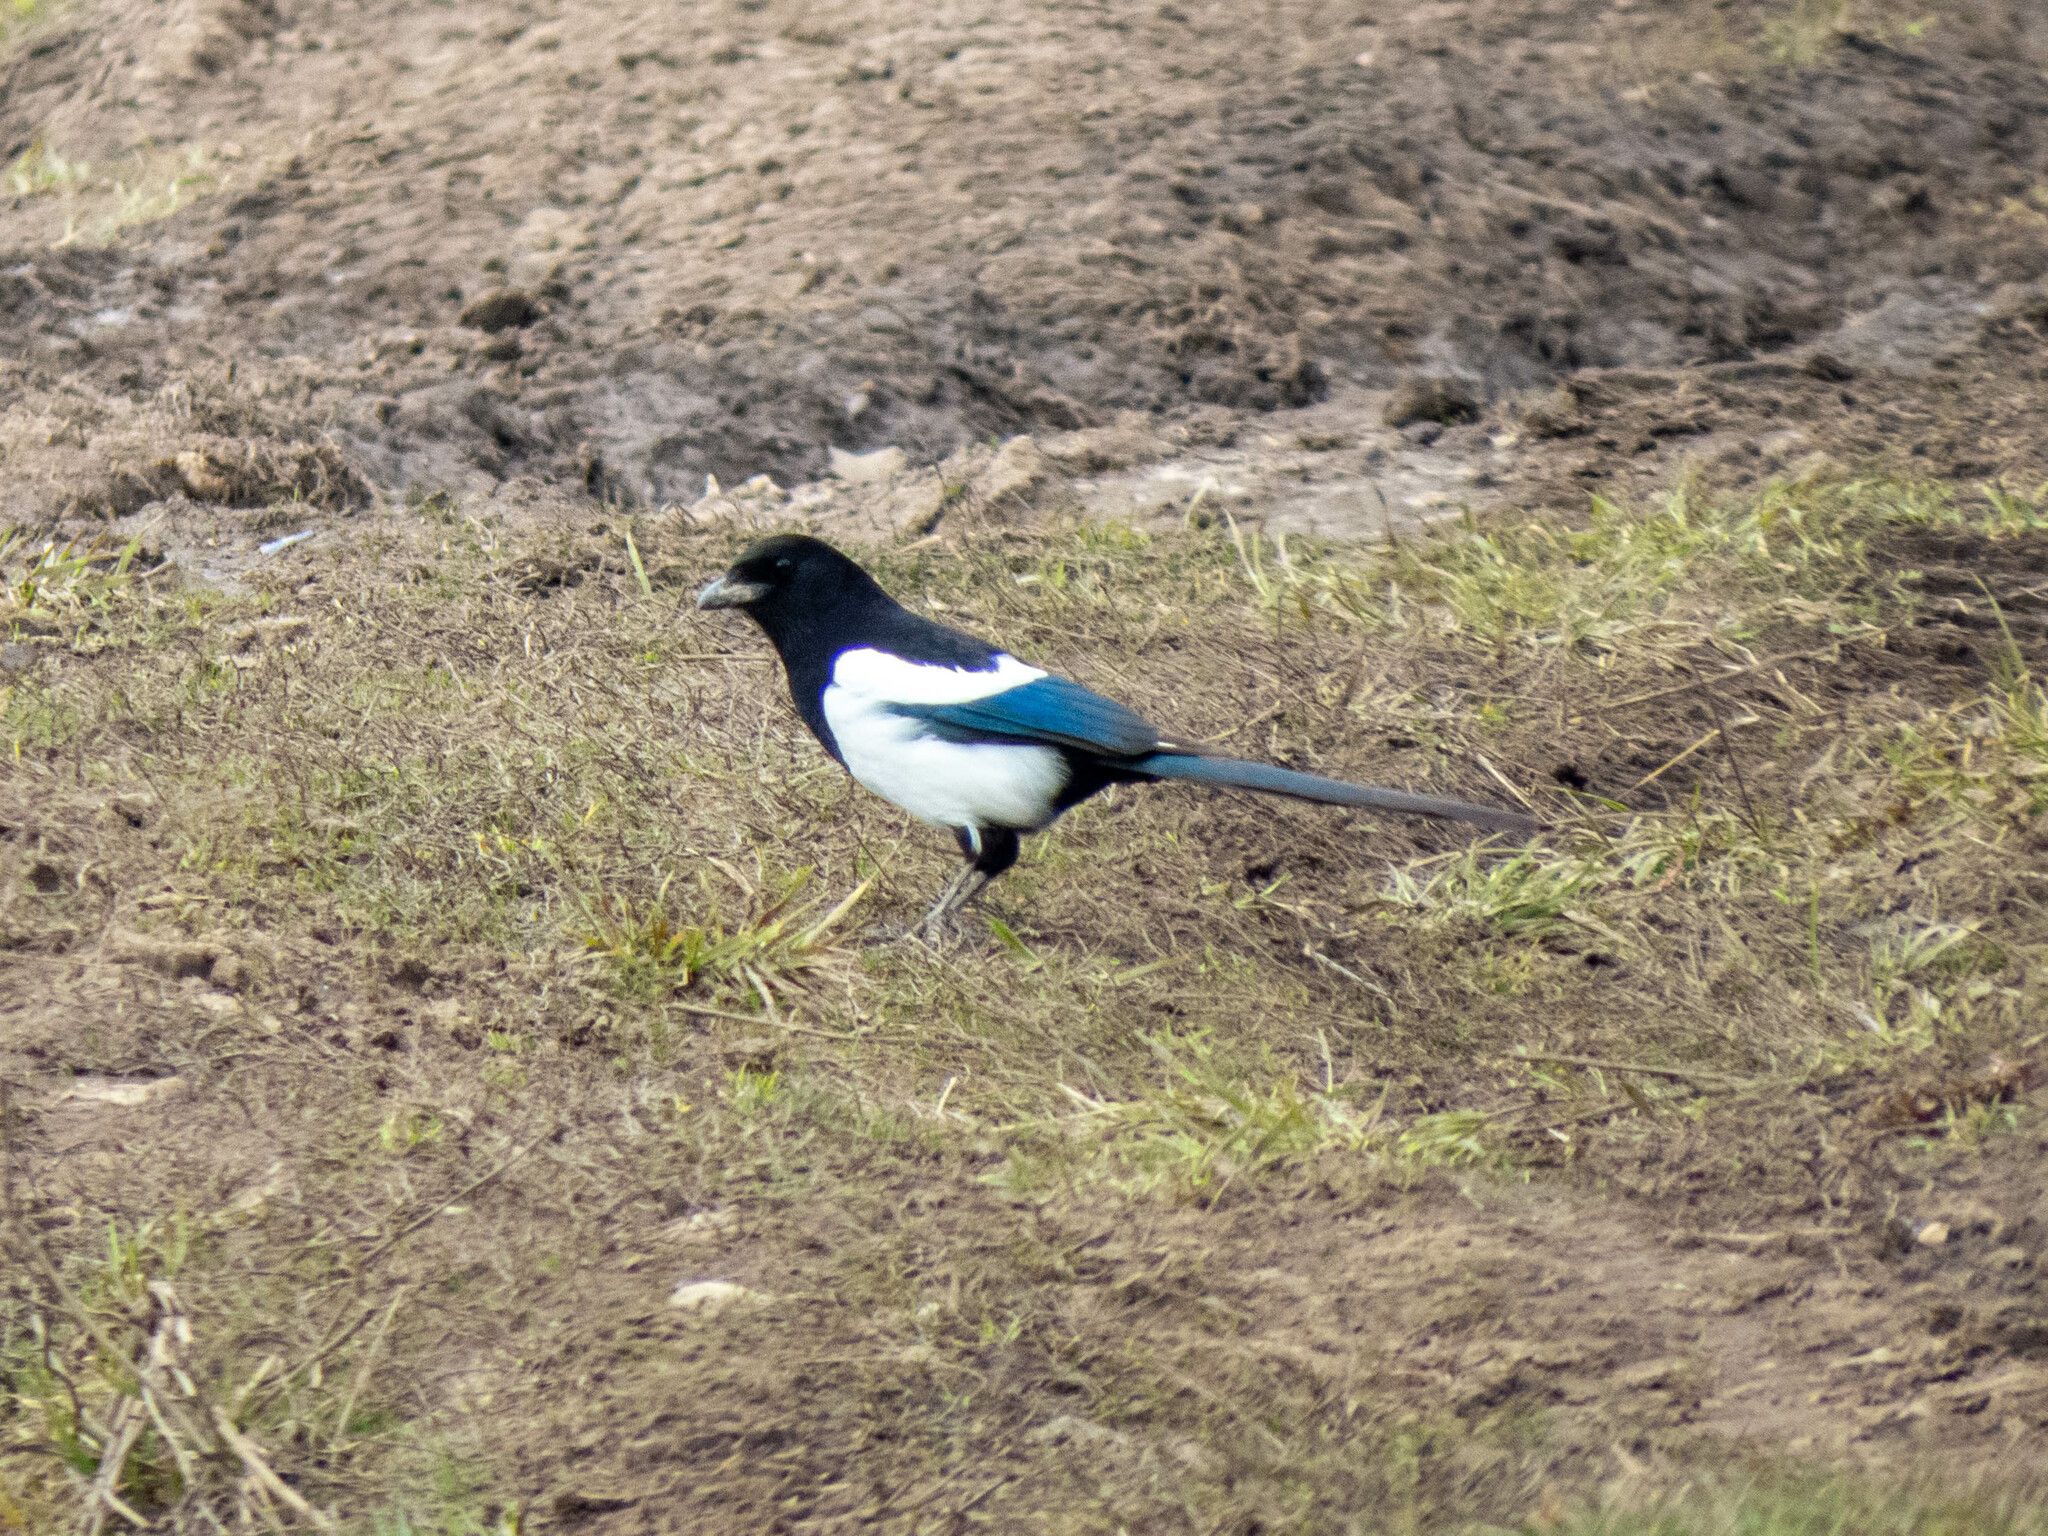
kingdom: Animalia
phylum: Chordata
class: Aves
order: Passeriformes
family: Corvidae
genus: Pica
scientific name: Pica pica
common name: Eurasian magpie
